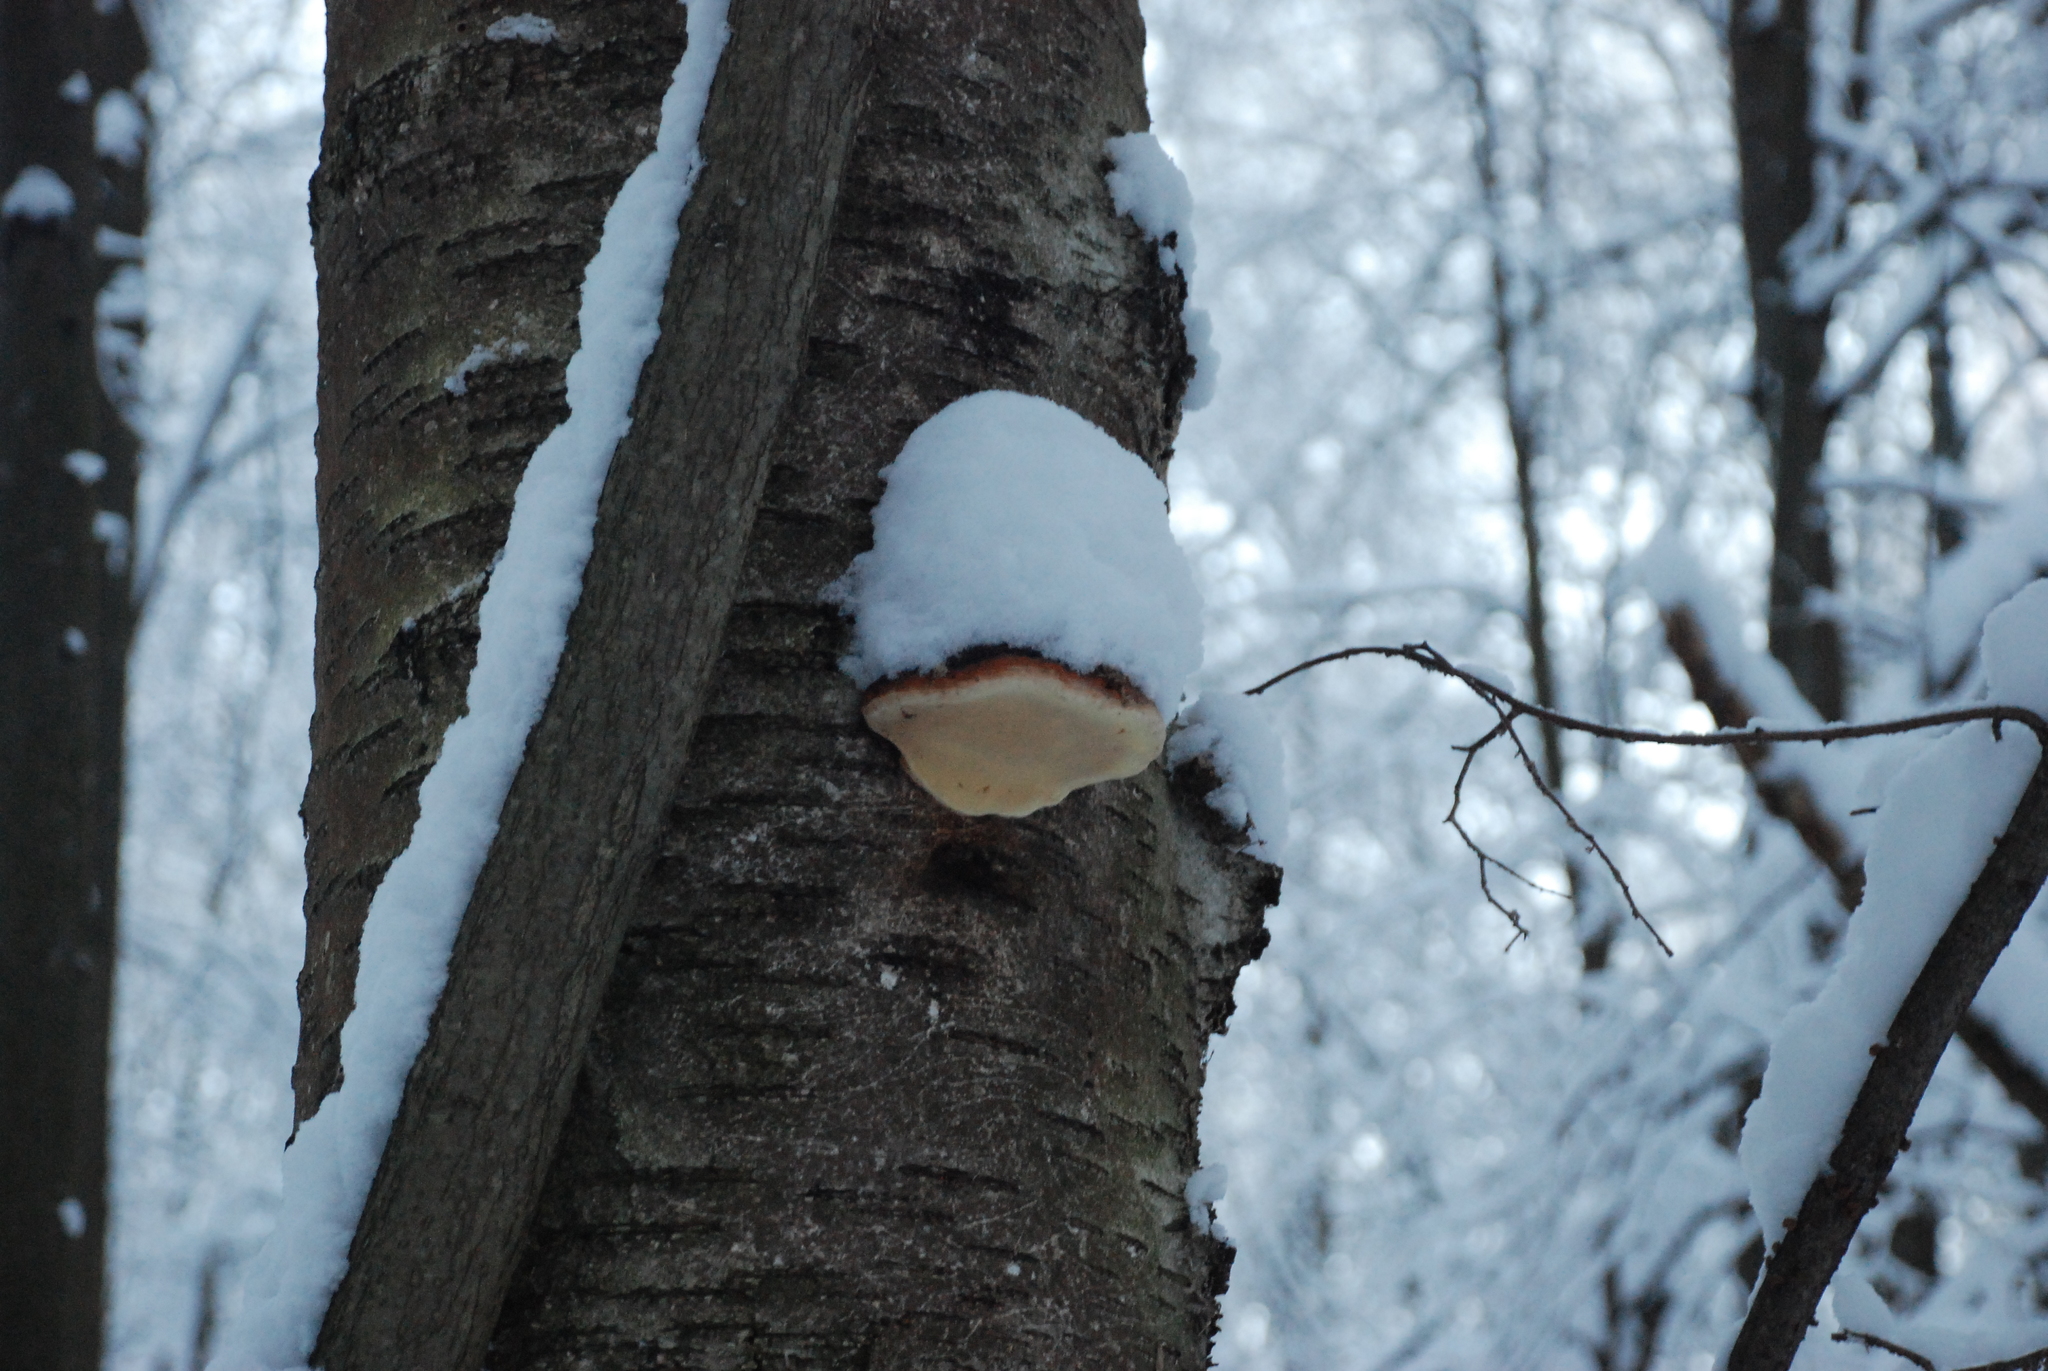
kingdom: Fungi
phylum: Basidiomycota
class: Agaricomycetes
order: Polyporales
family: Fomitopsidaceae
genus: Fomitopsis
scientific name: Fomitopsis pinicola
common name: Red-belted bracket
